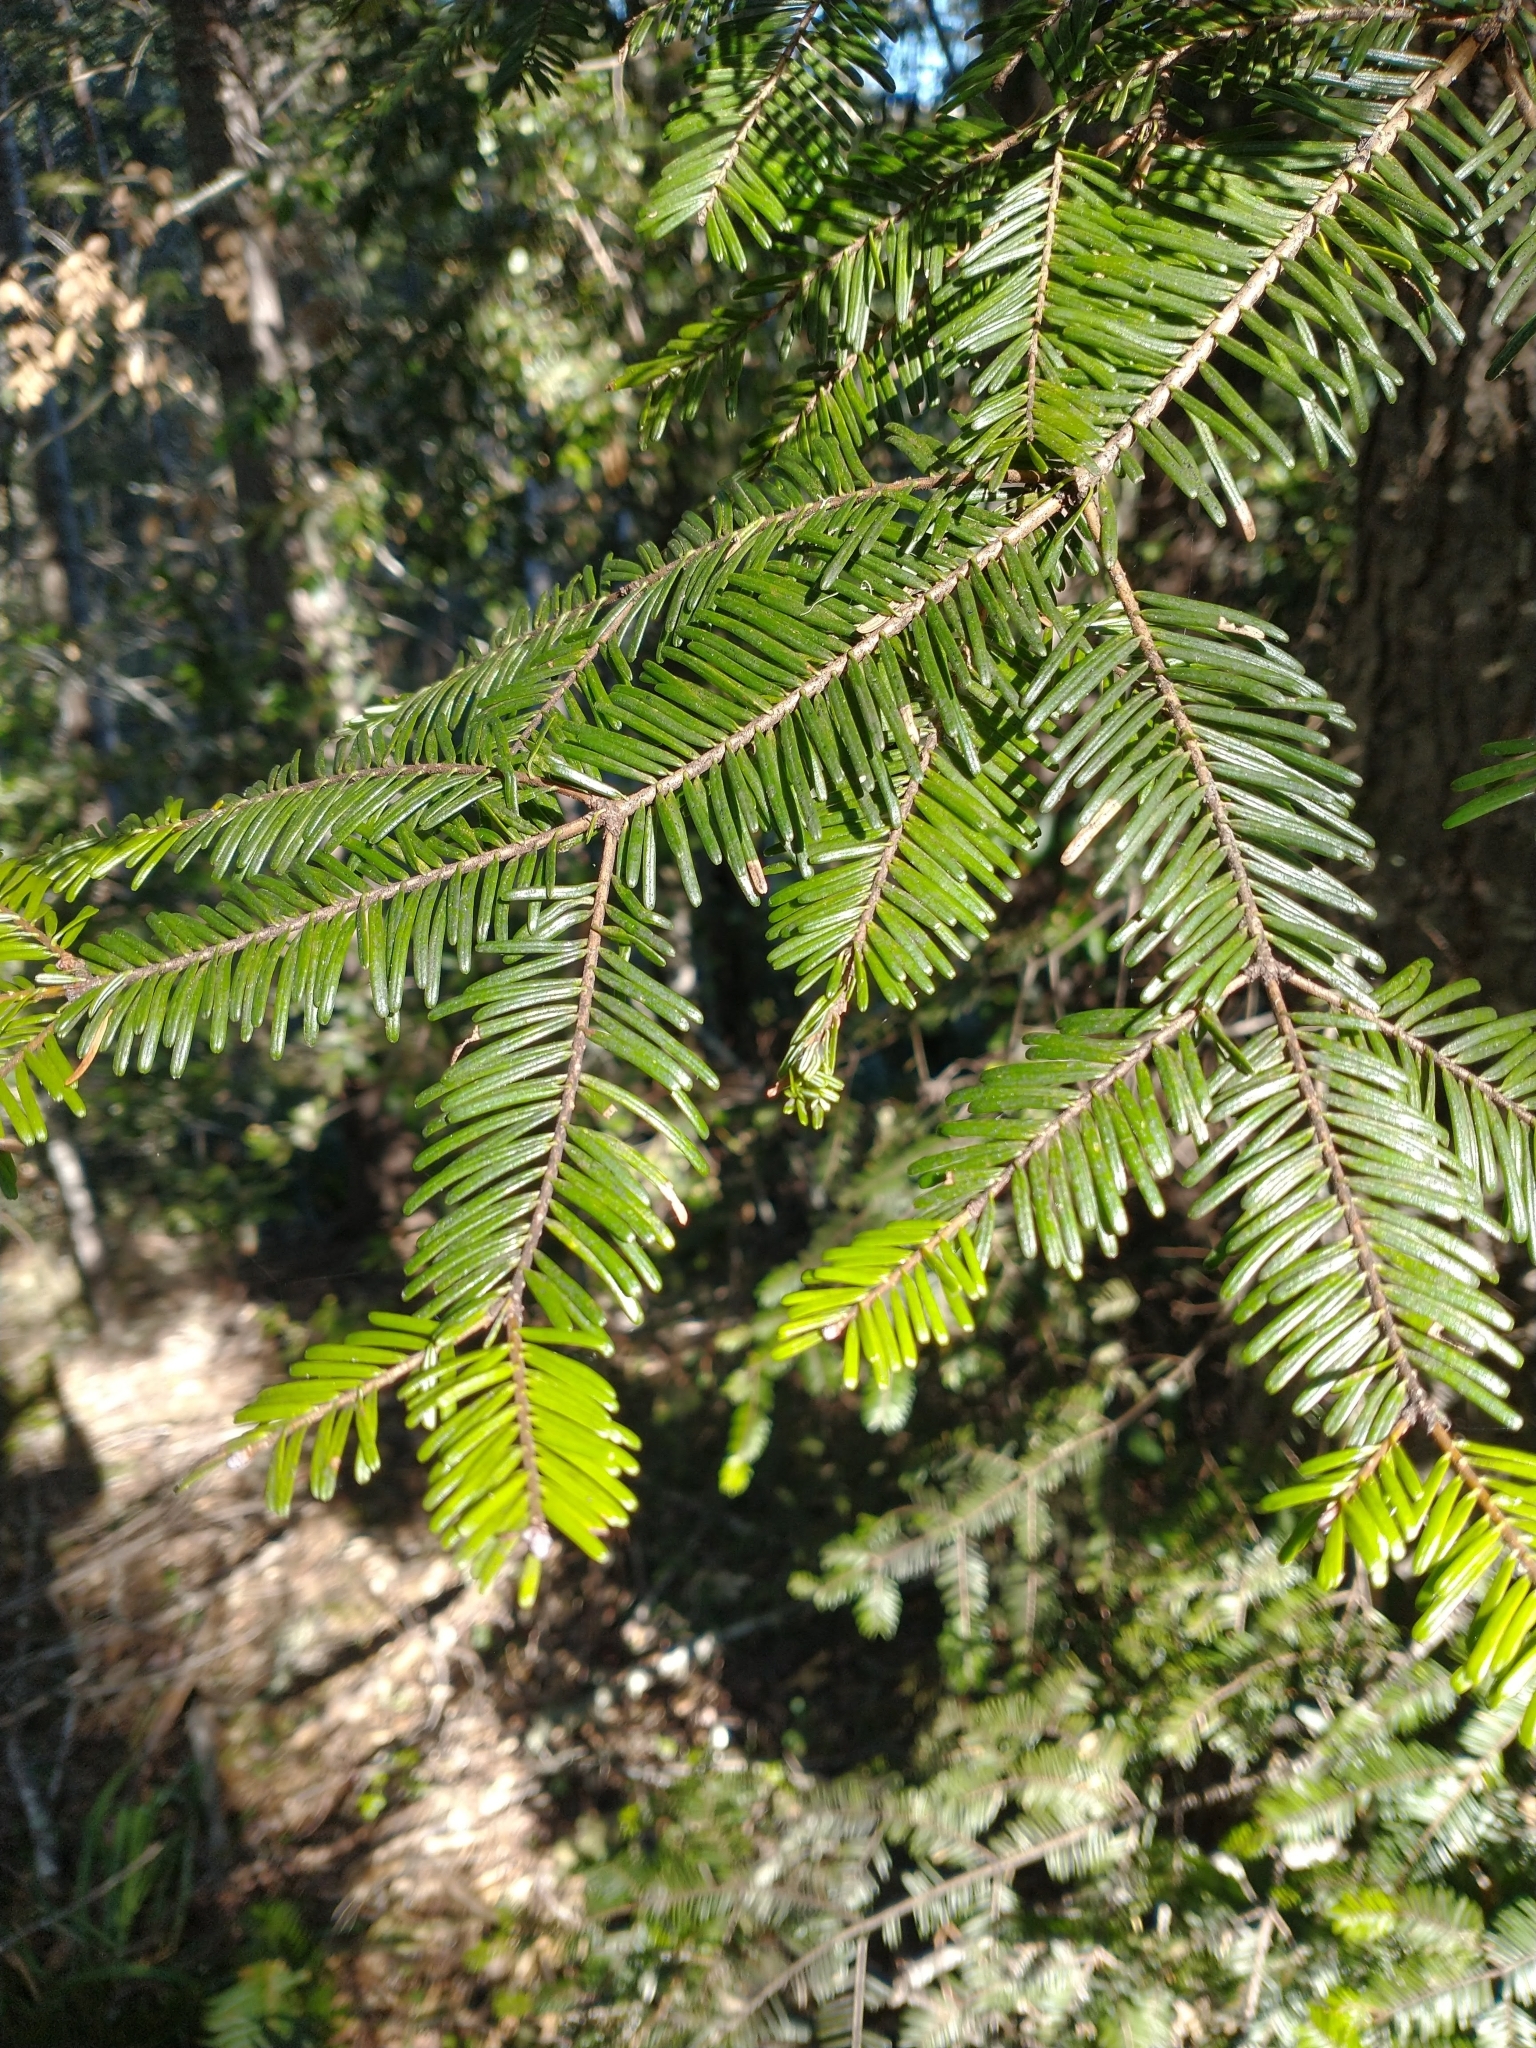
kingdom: Plantae
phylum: Tracheophyta
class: Pinopsida
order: Pinales
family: Pinaceae
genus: Abies
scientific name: Abies grandis
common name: Giant fir
